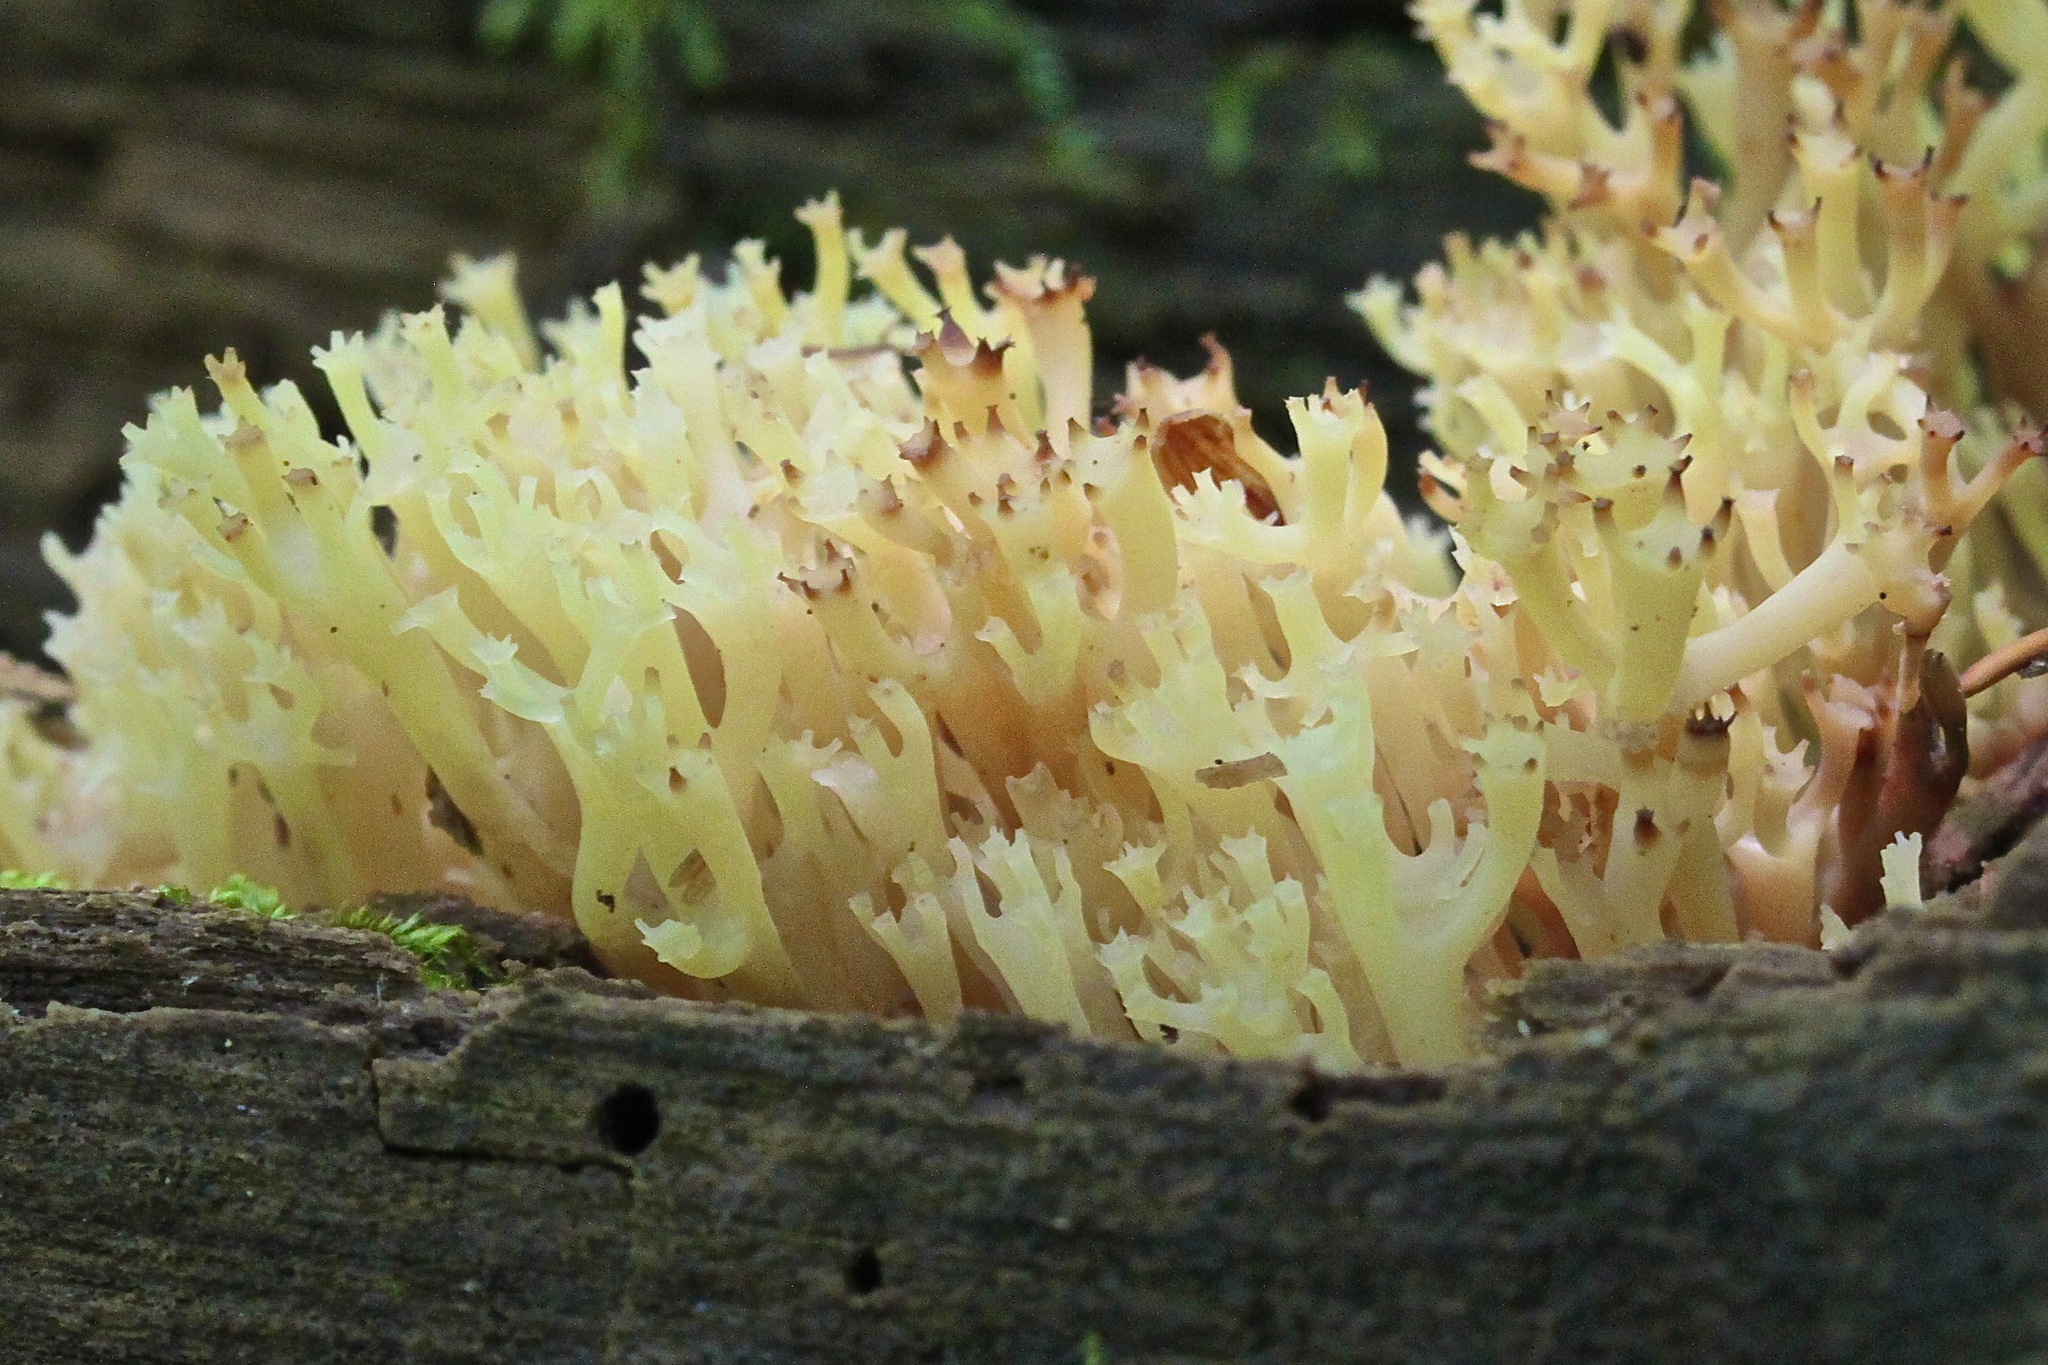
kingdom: Fungi
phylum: Basidiomycota
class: Agaricomycetes
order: Russulales
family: Auriscalpiaceae
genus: Artomyces
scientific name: Artomyces pyxidatus
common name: Crown-tipped coral fungus
